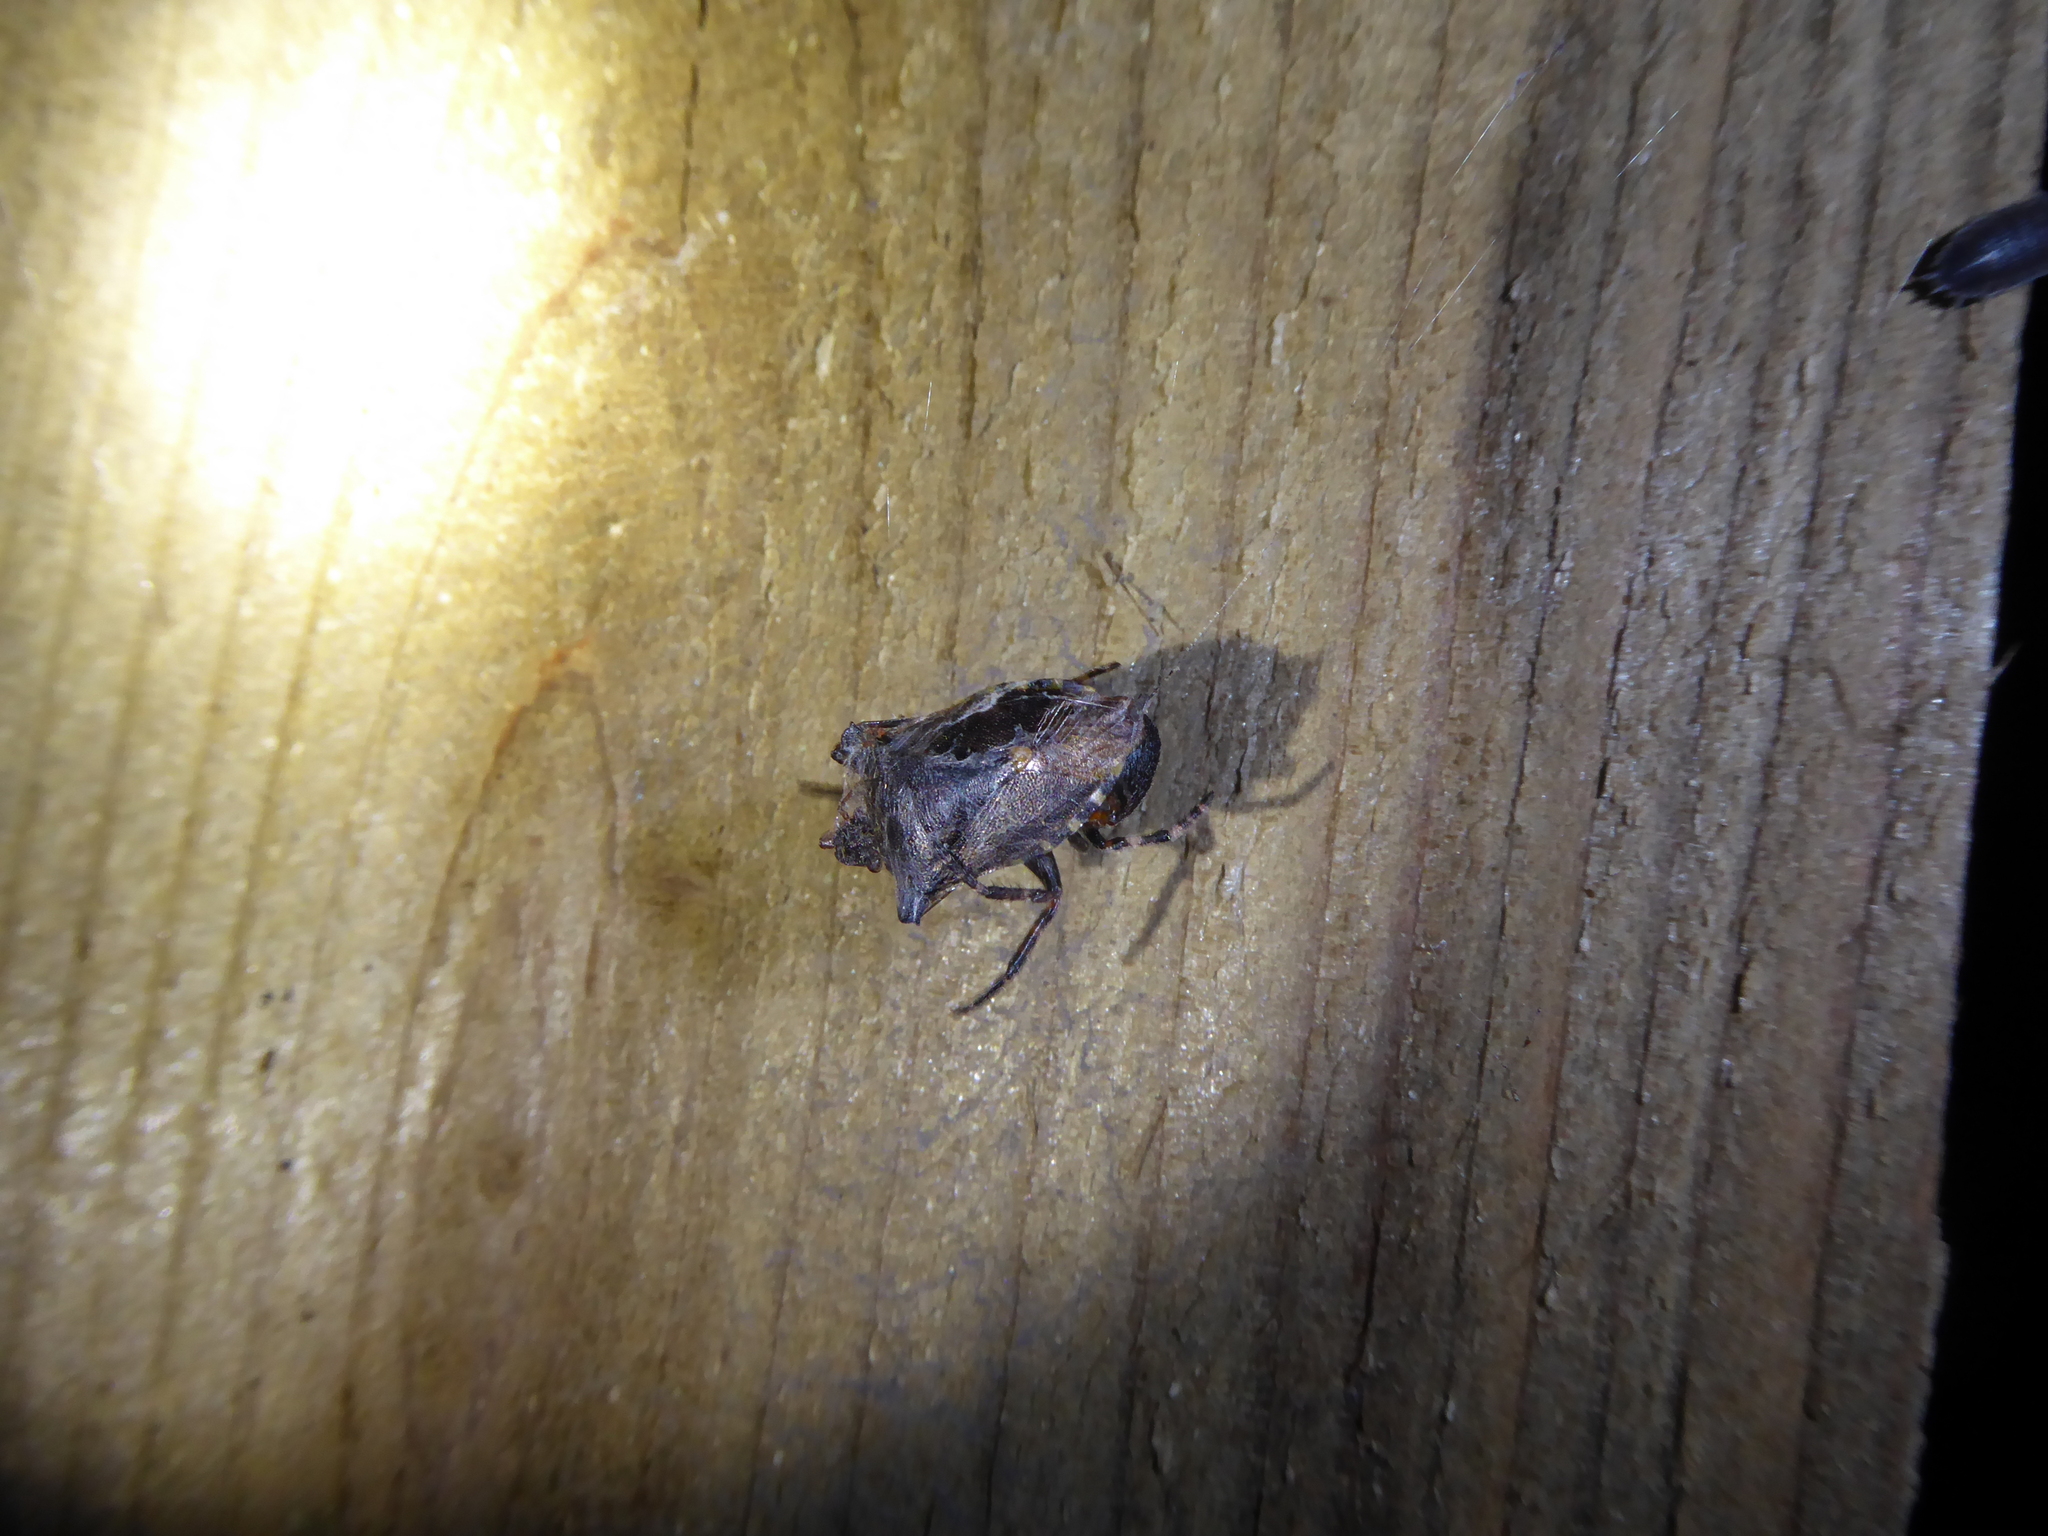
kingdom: Animalia
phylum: Arthropoda
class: Insecta
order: Hemiptera
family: Pentatomidae
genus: Pentatoma
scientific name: Pentatoma rufipes
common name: Forest bug
